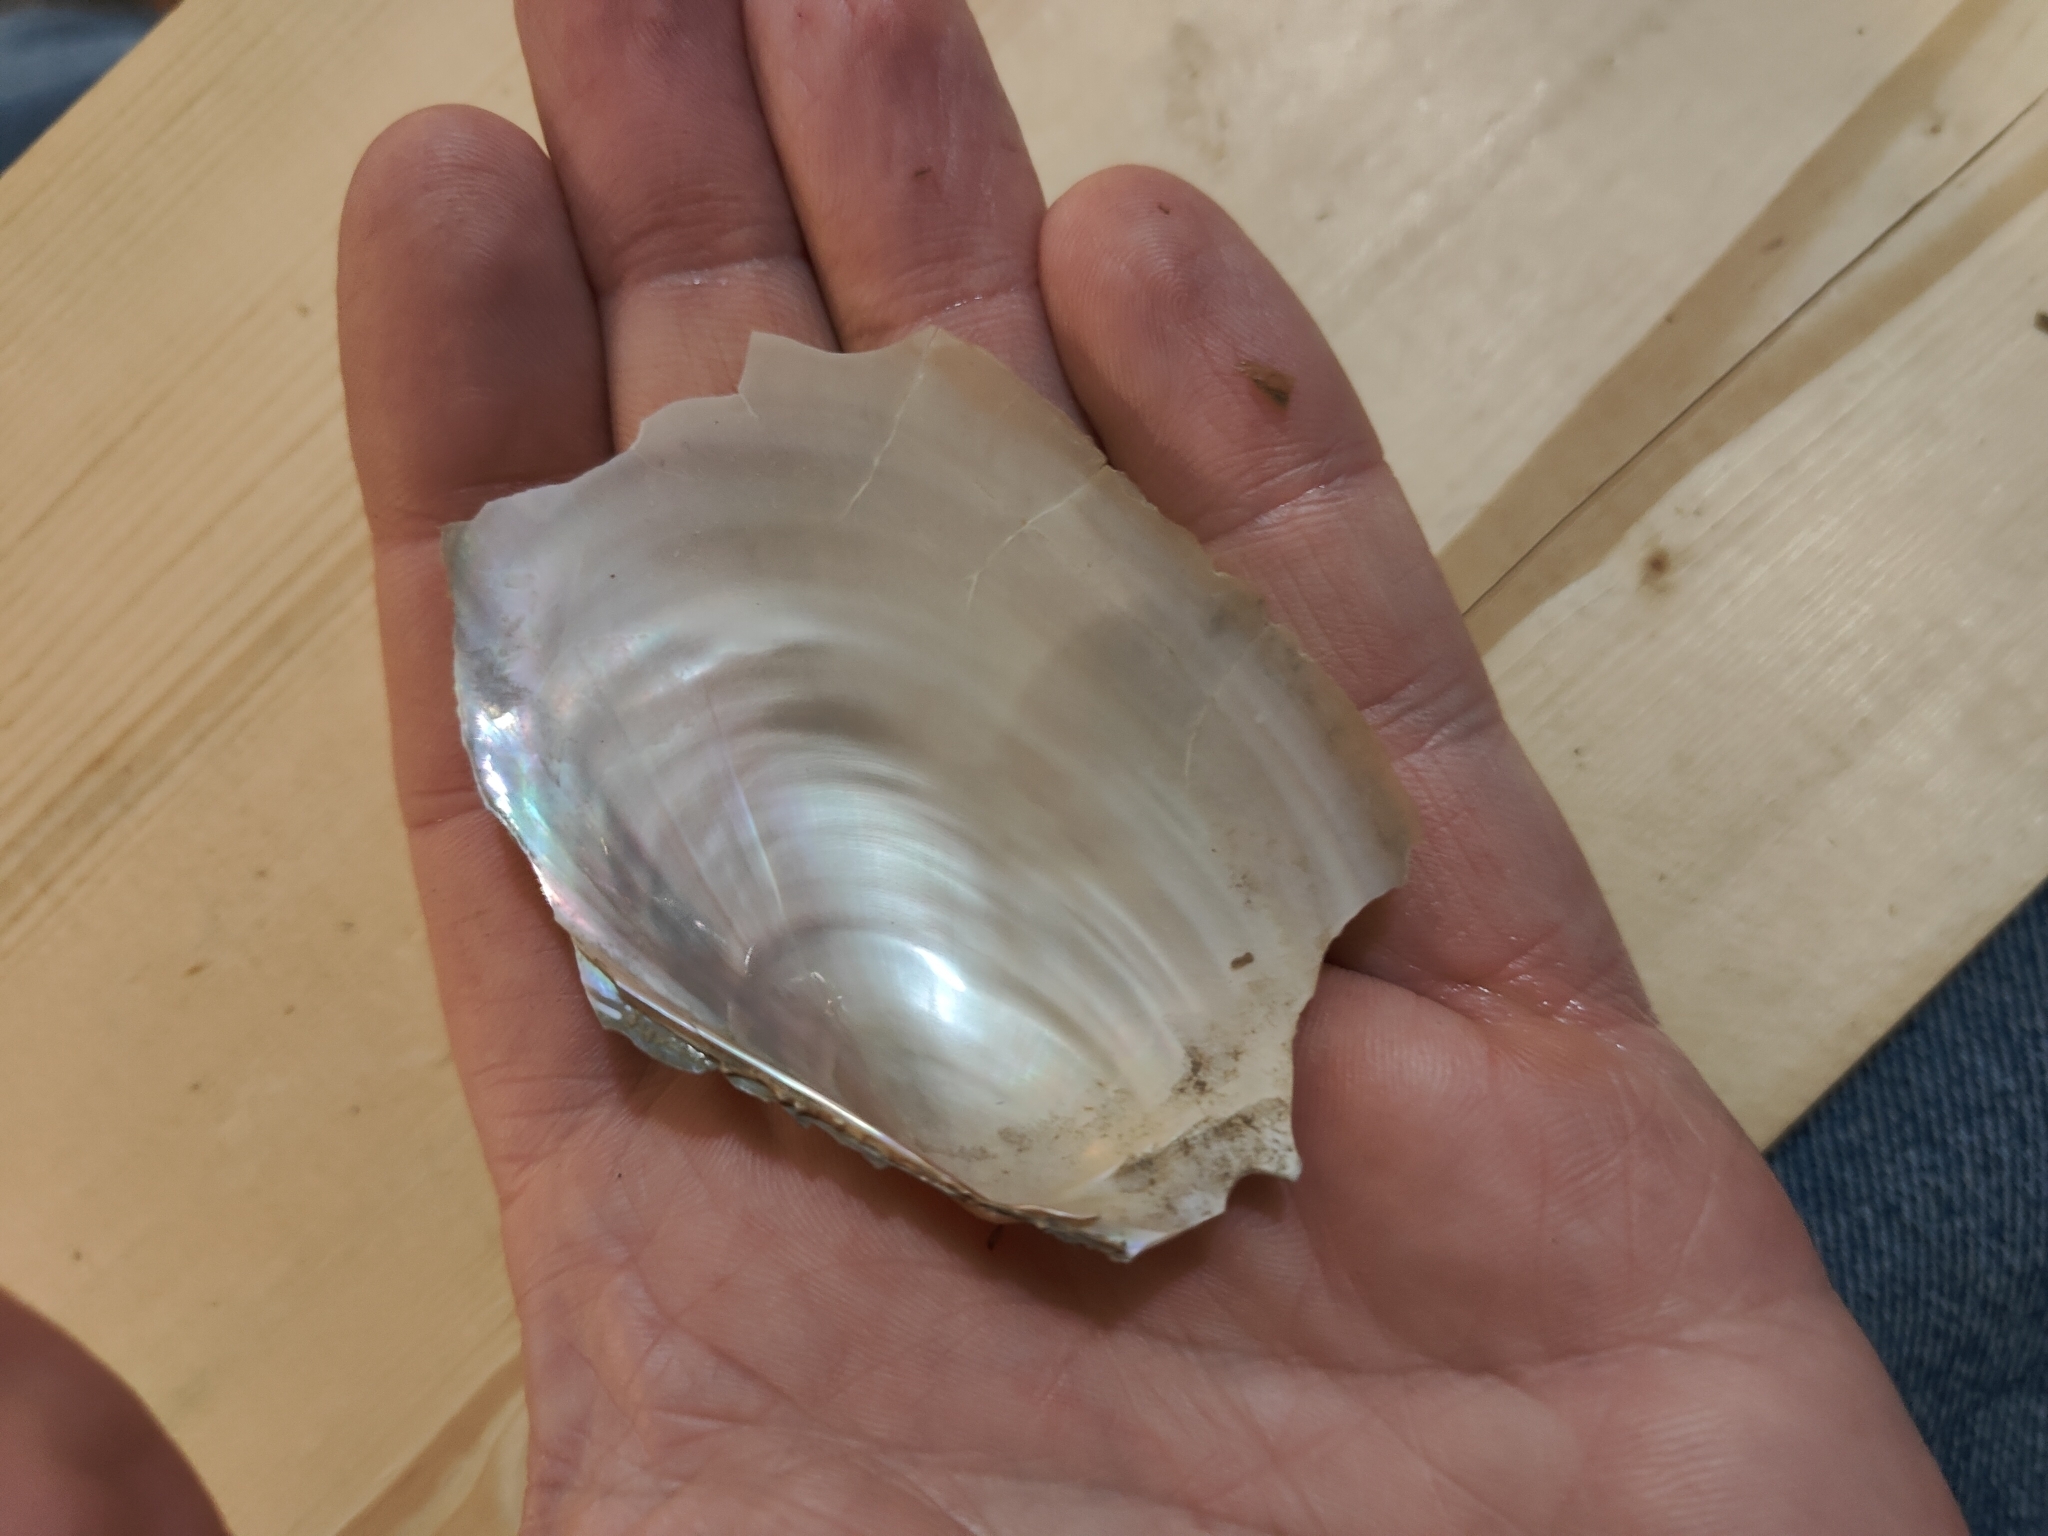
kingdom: Animalia
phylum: Mollusca
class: Bivalvia
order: Unionida
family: Unionidae
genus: Potamilus
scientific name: Potamilus fragilis
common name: Fragile papershell
